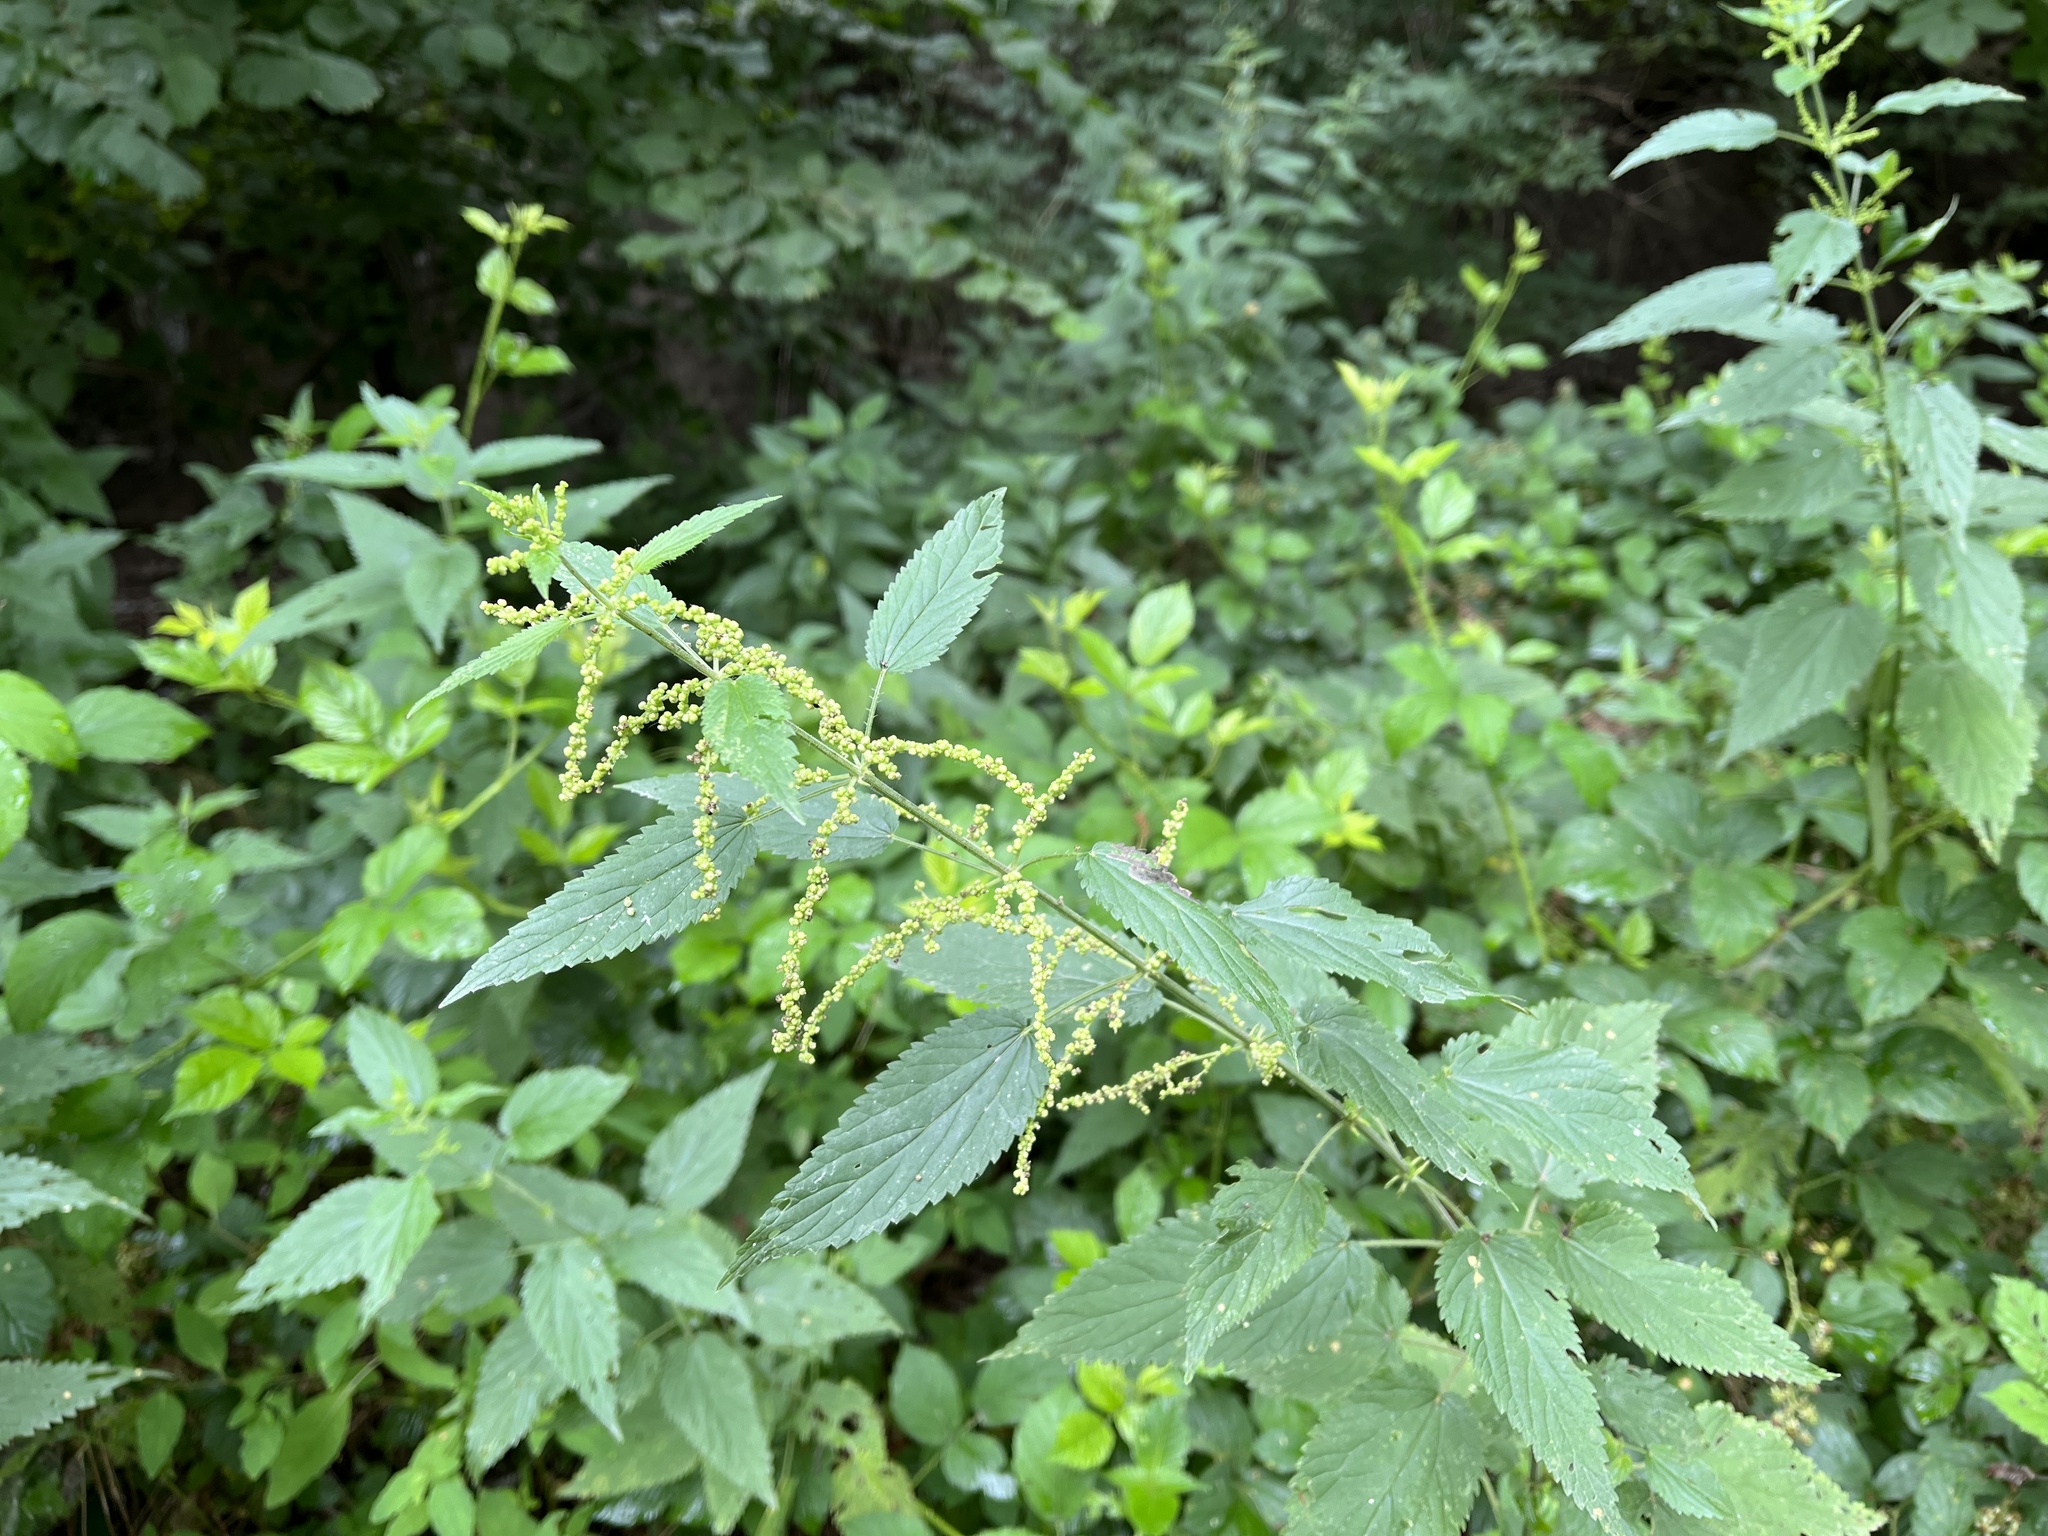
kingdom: Plantae
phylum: Tracheophyta
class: Magnoliopsida
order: Rosales
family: Urticaceae
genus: Urtica
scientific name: Urtica dioica
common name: Common nettle
